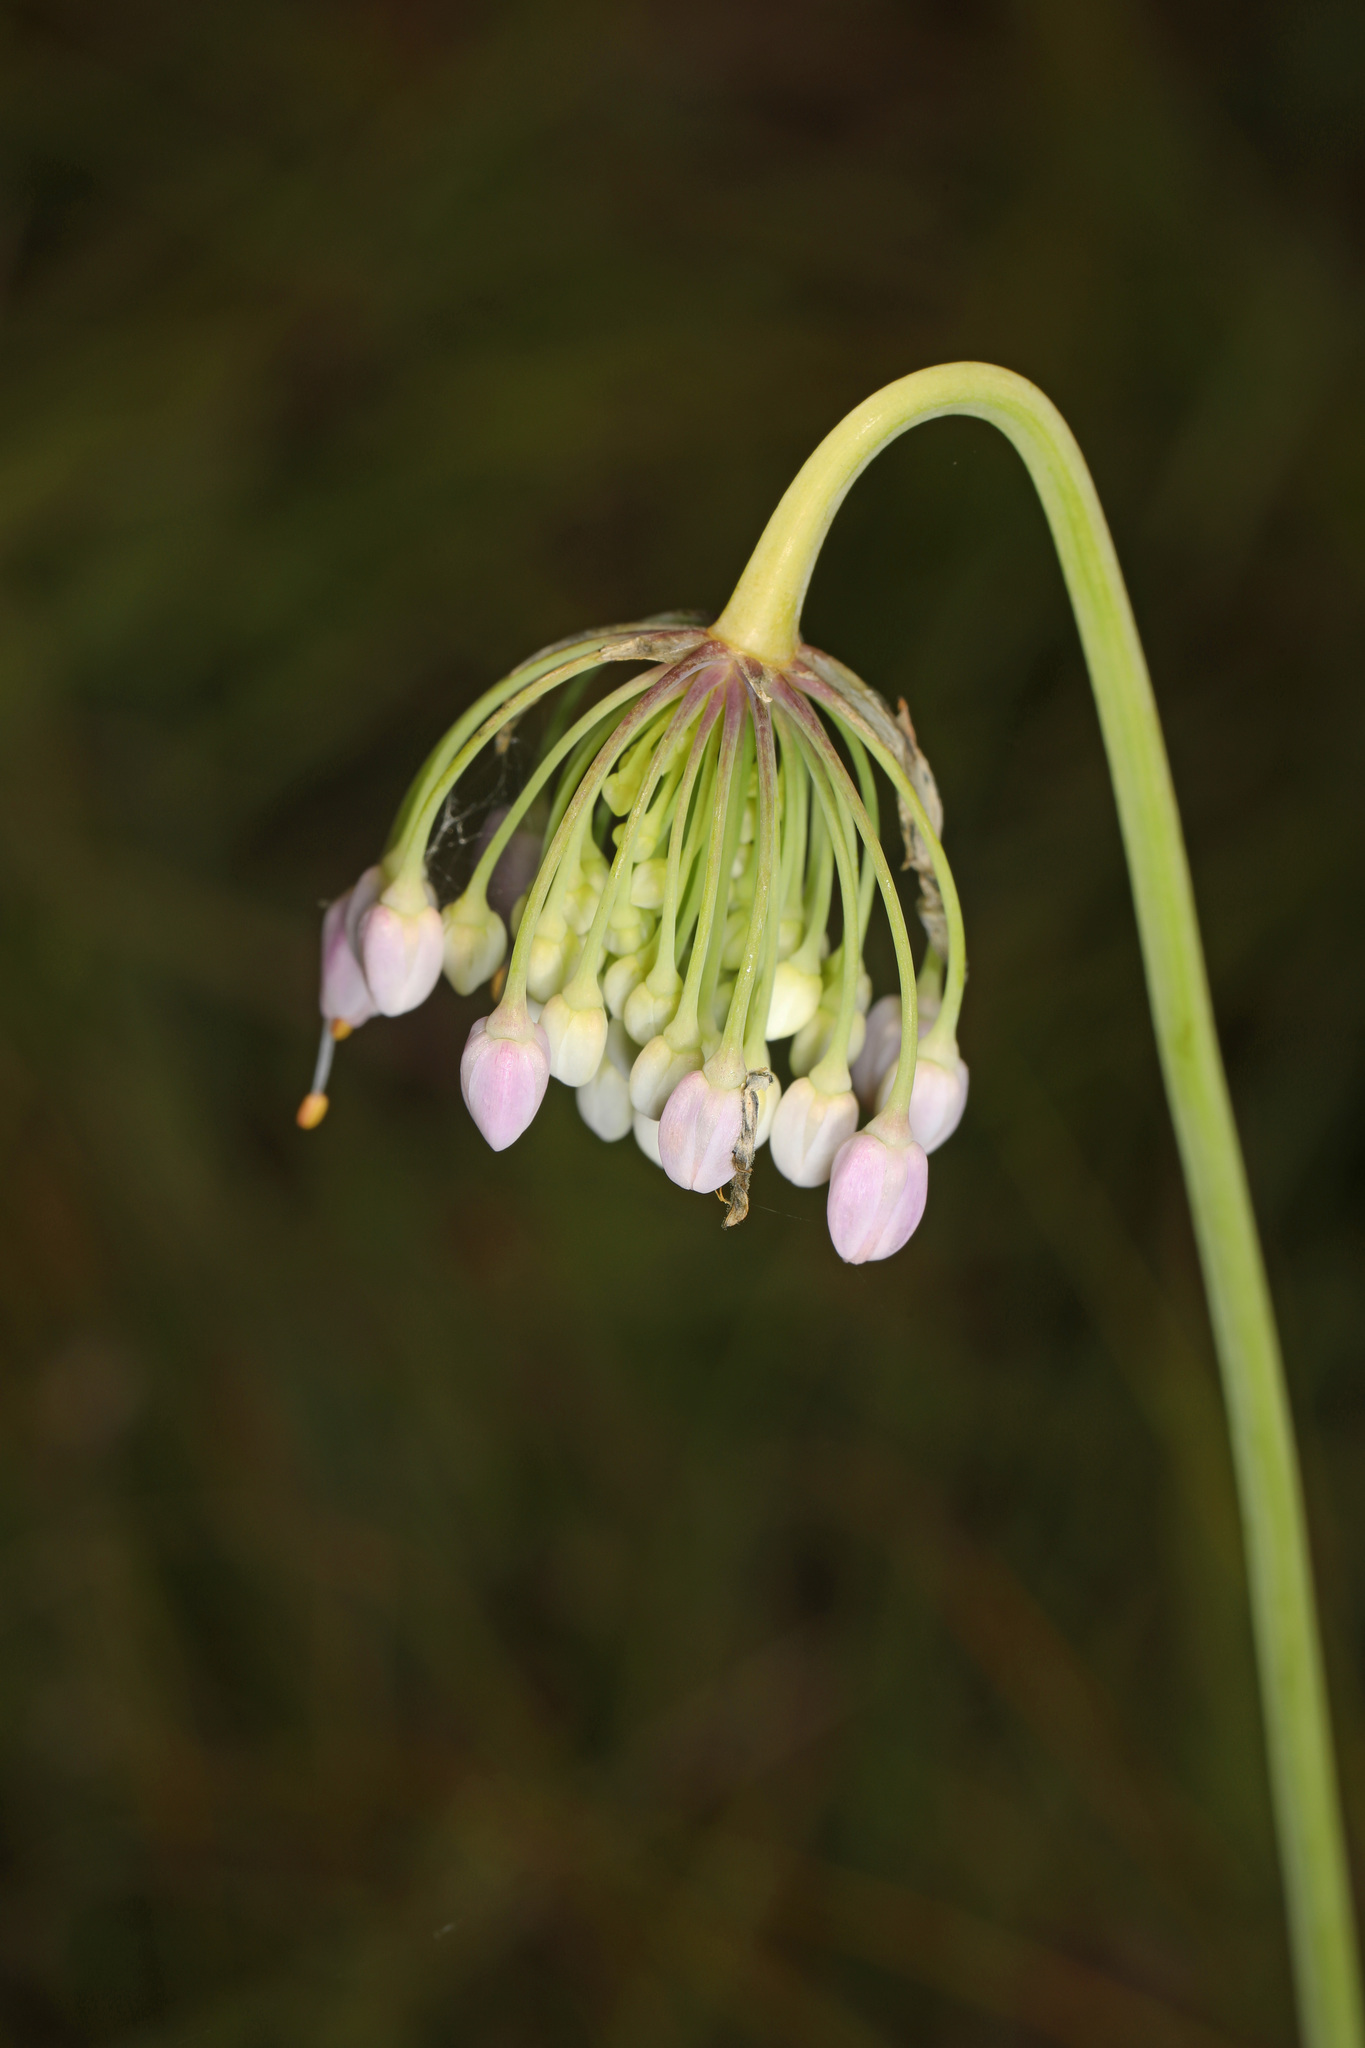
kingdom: Plantae
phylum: Tracheophyta
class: Liliopsida
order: Asparagales
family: Amaryllidaceae
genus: Allium
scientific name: Allium cernuum
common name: Nodding onion
